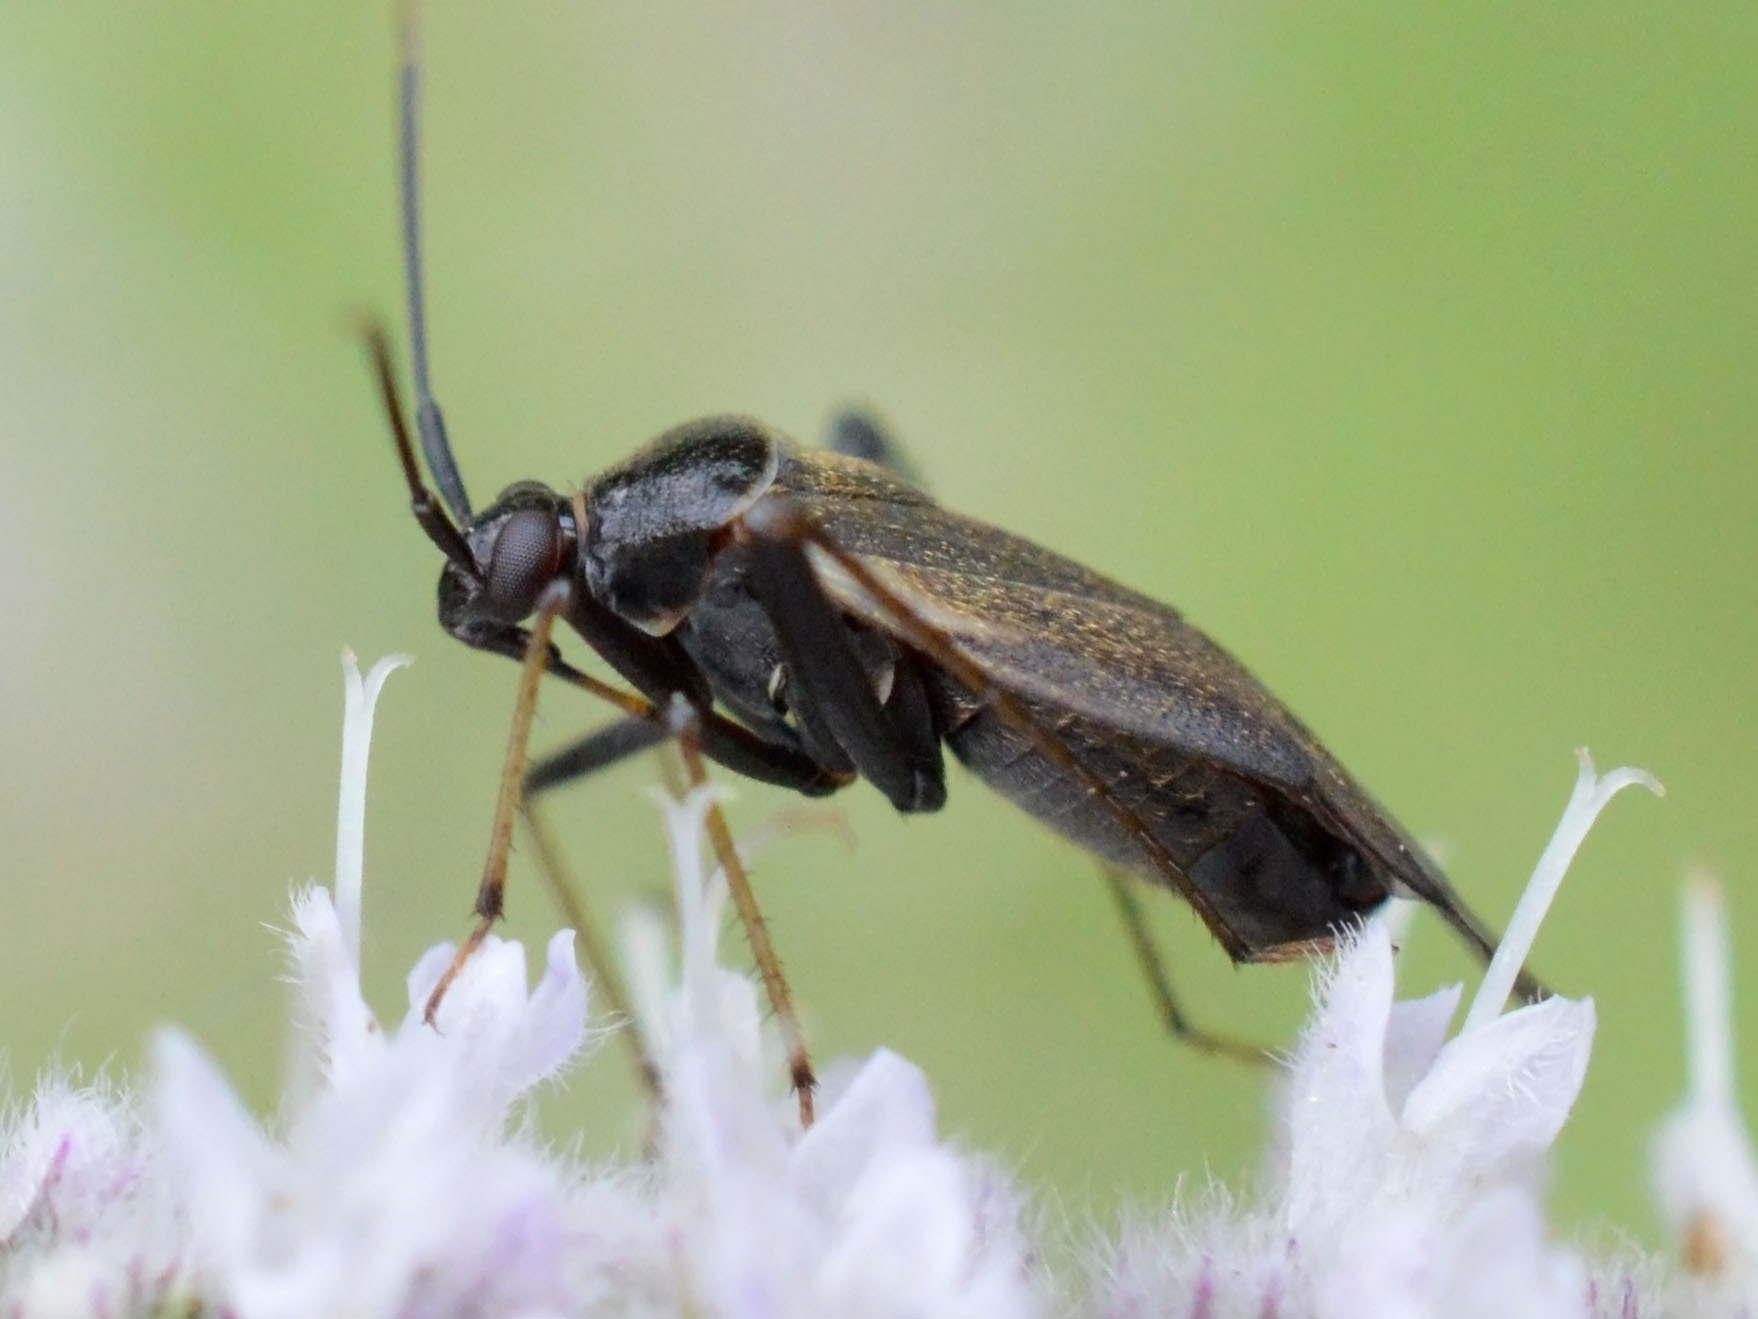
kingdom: Animalia
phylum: Arthropoda
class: Insecta
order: Hemiptera
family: Miridae
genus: Adelphocoris
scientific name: Adelphocoris seticornis
